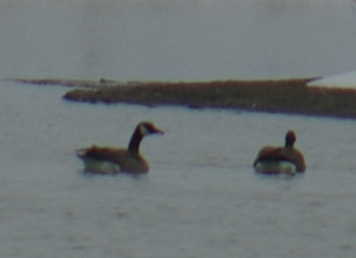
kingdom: Animalia
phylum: Chordata
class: Aves
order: Anseriformes
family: Anatidae
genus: Branta
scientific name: Branta canadensis
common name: Canada goose
